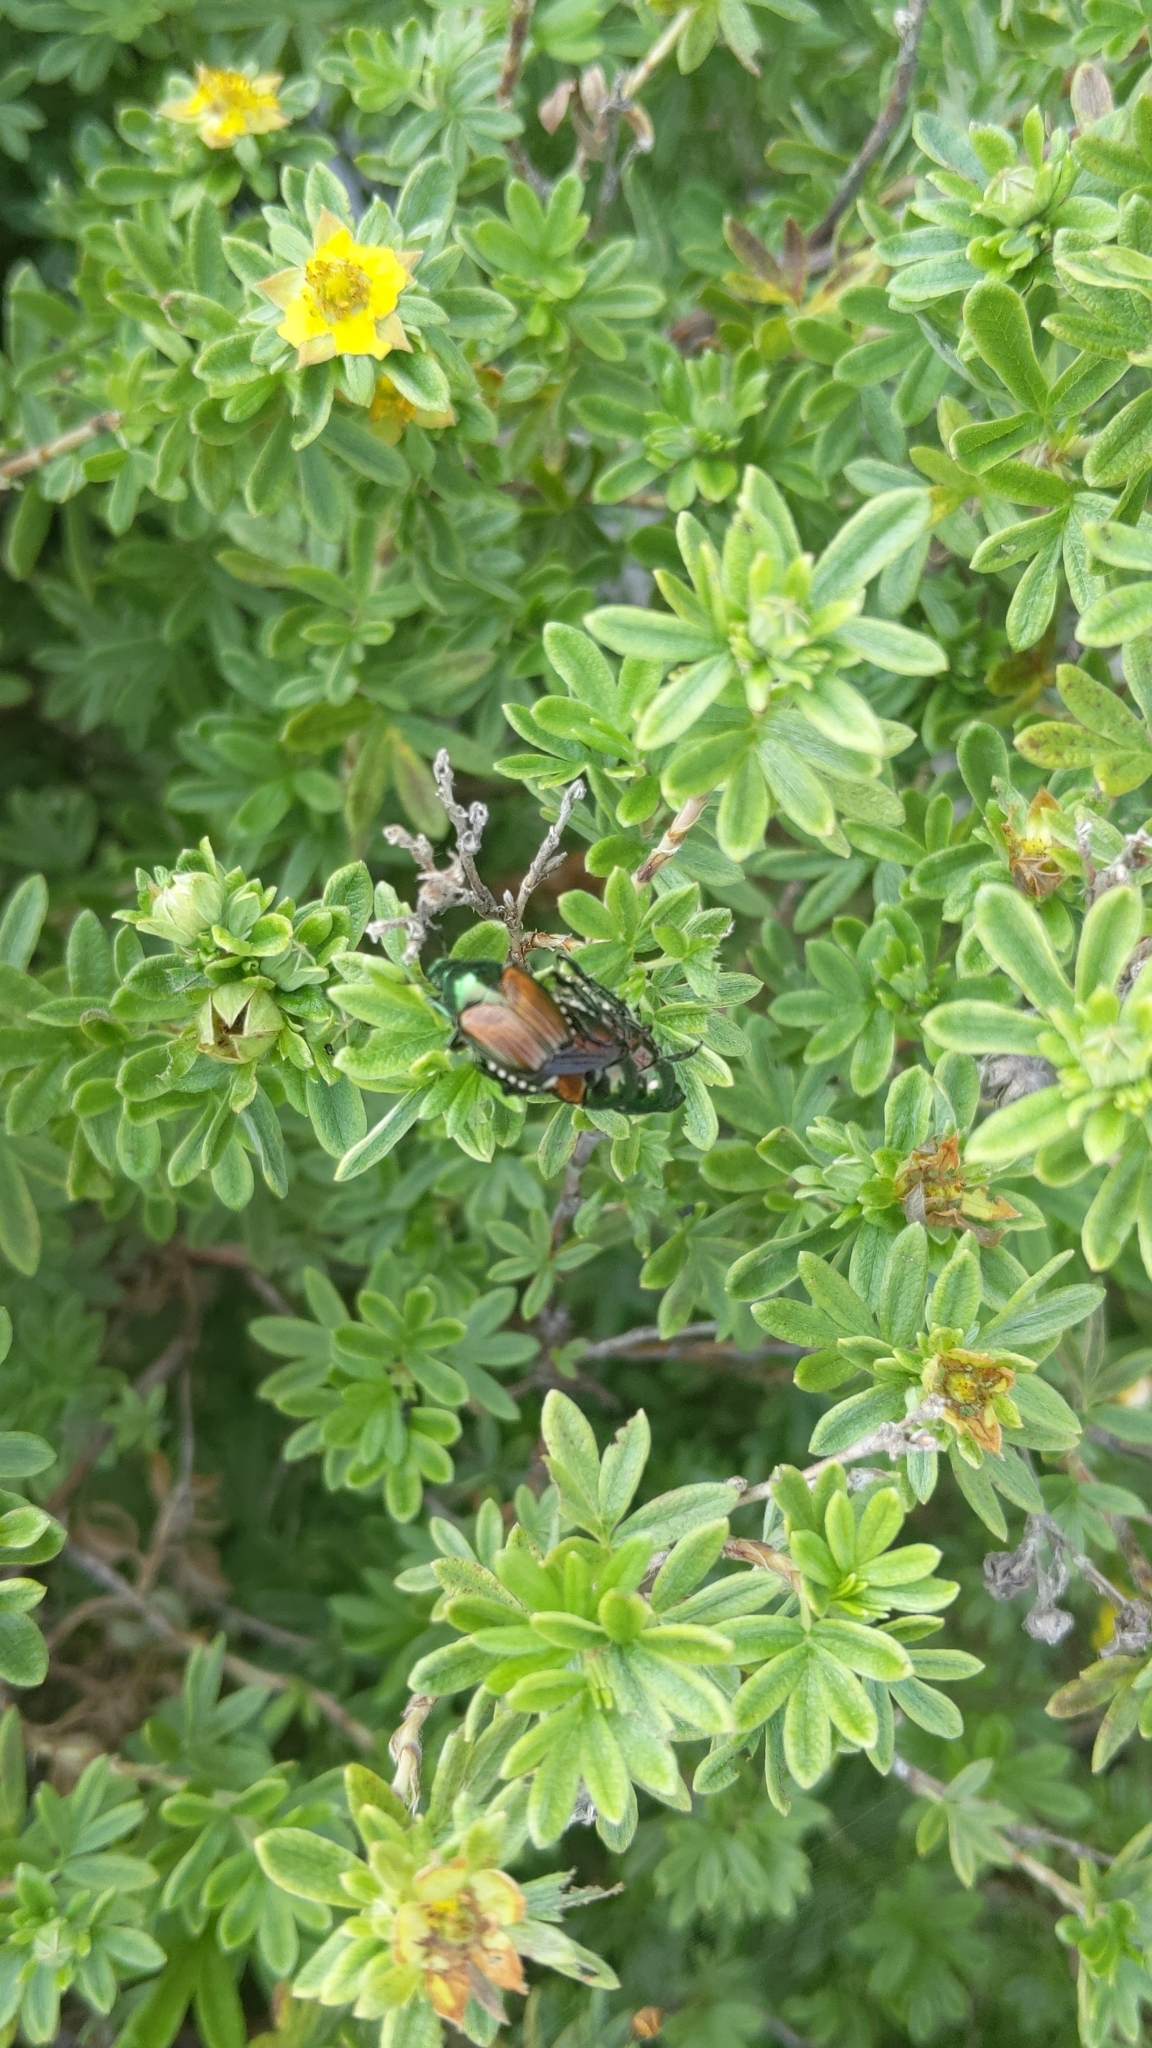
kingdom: Animalia
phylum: Arthropoda
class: Insecta
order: Coleoptera
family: Scarabaeidae
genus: Popillia
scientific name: Popillia japonica
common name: Japanese beetle
